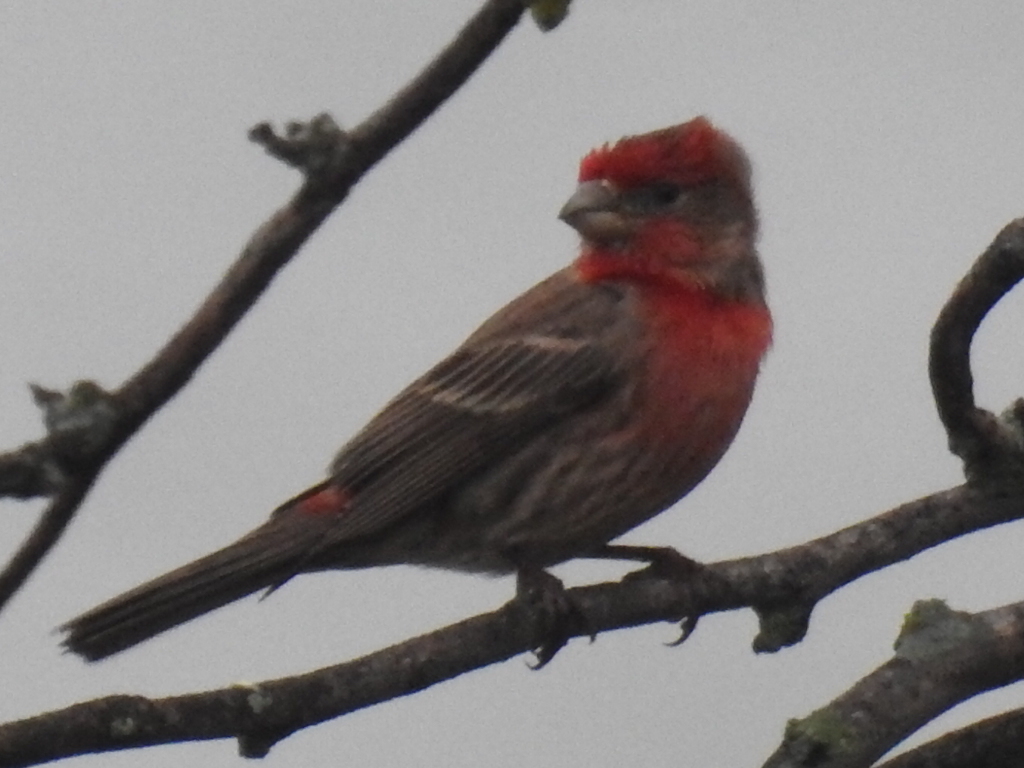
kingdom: Animalia
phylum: Chordata
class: Aves
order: Passeriformes
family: Fringillidae
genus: Haemorhous
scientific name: Haemorhous mexicanus
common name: House finch
